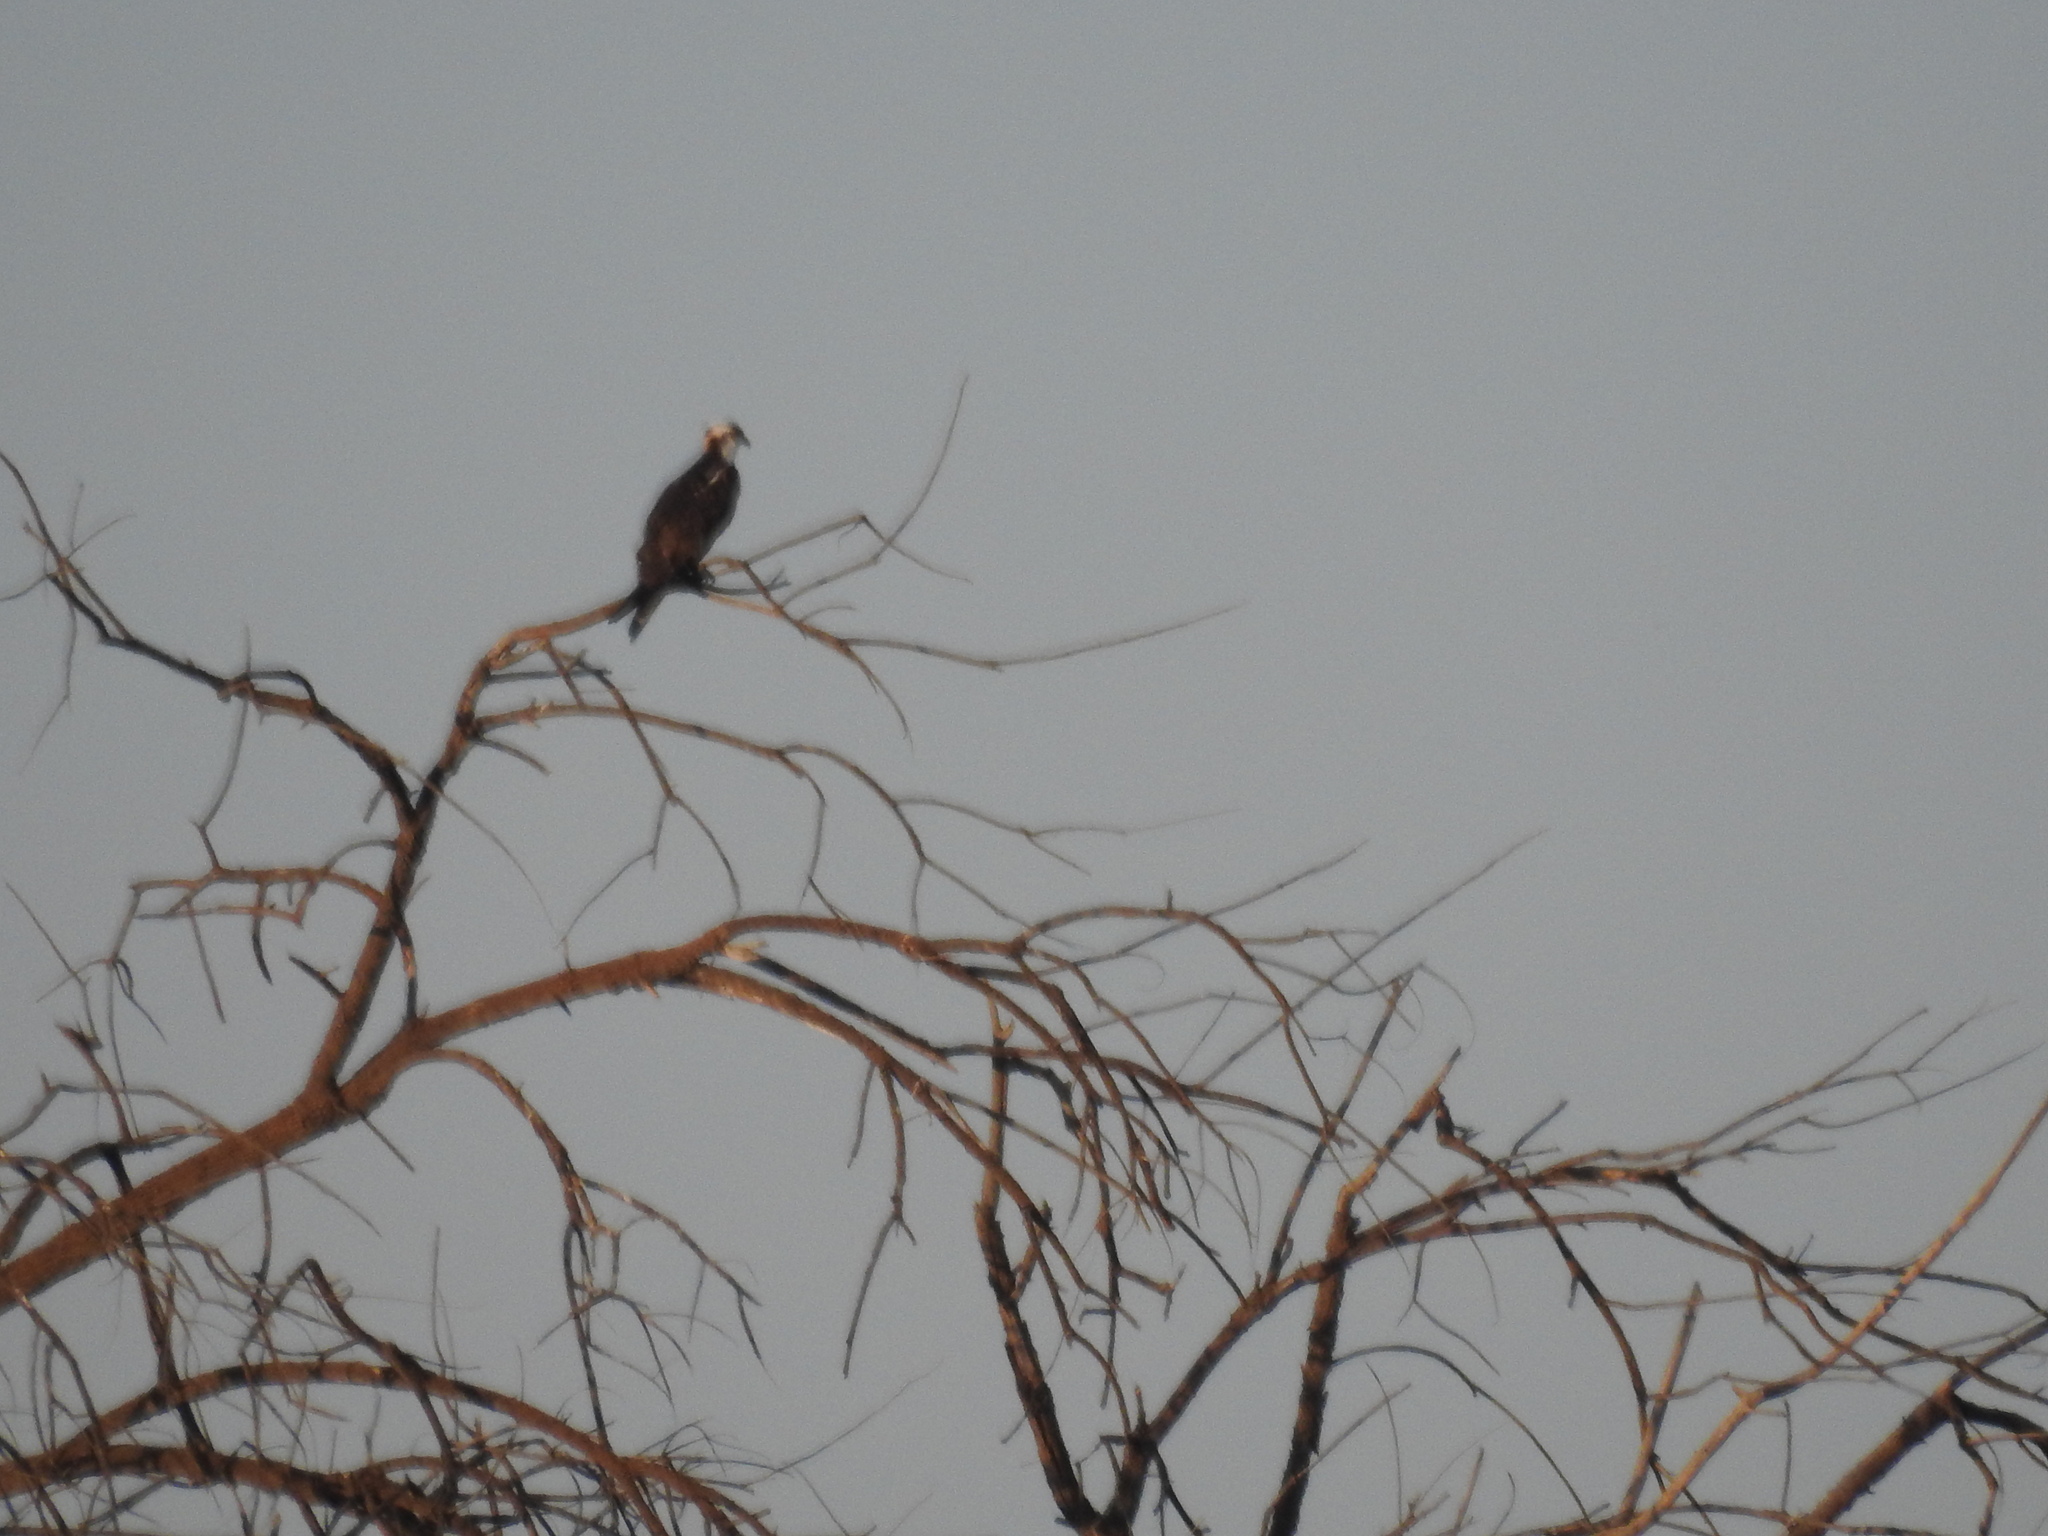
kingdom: Animalia
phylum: Chordata
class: Aves
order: Accipitriformes
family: Pandionidae
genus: Pandion
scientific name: Pandion haliaetus
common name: Osprey
